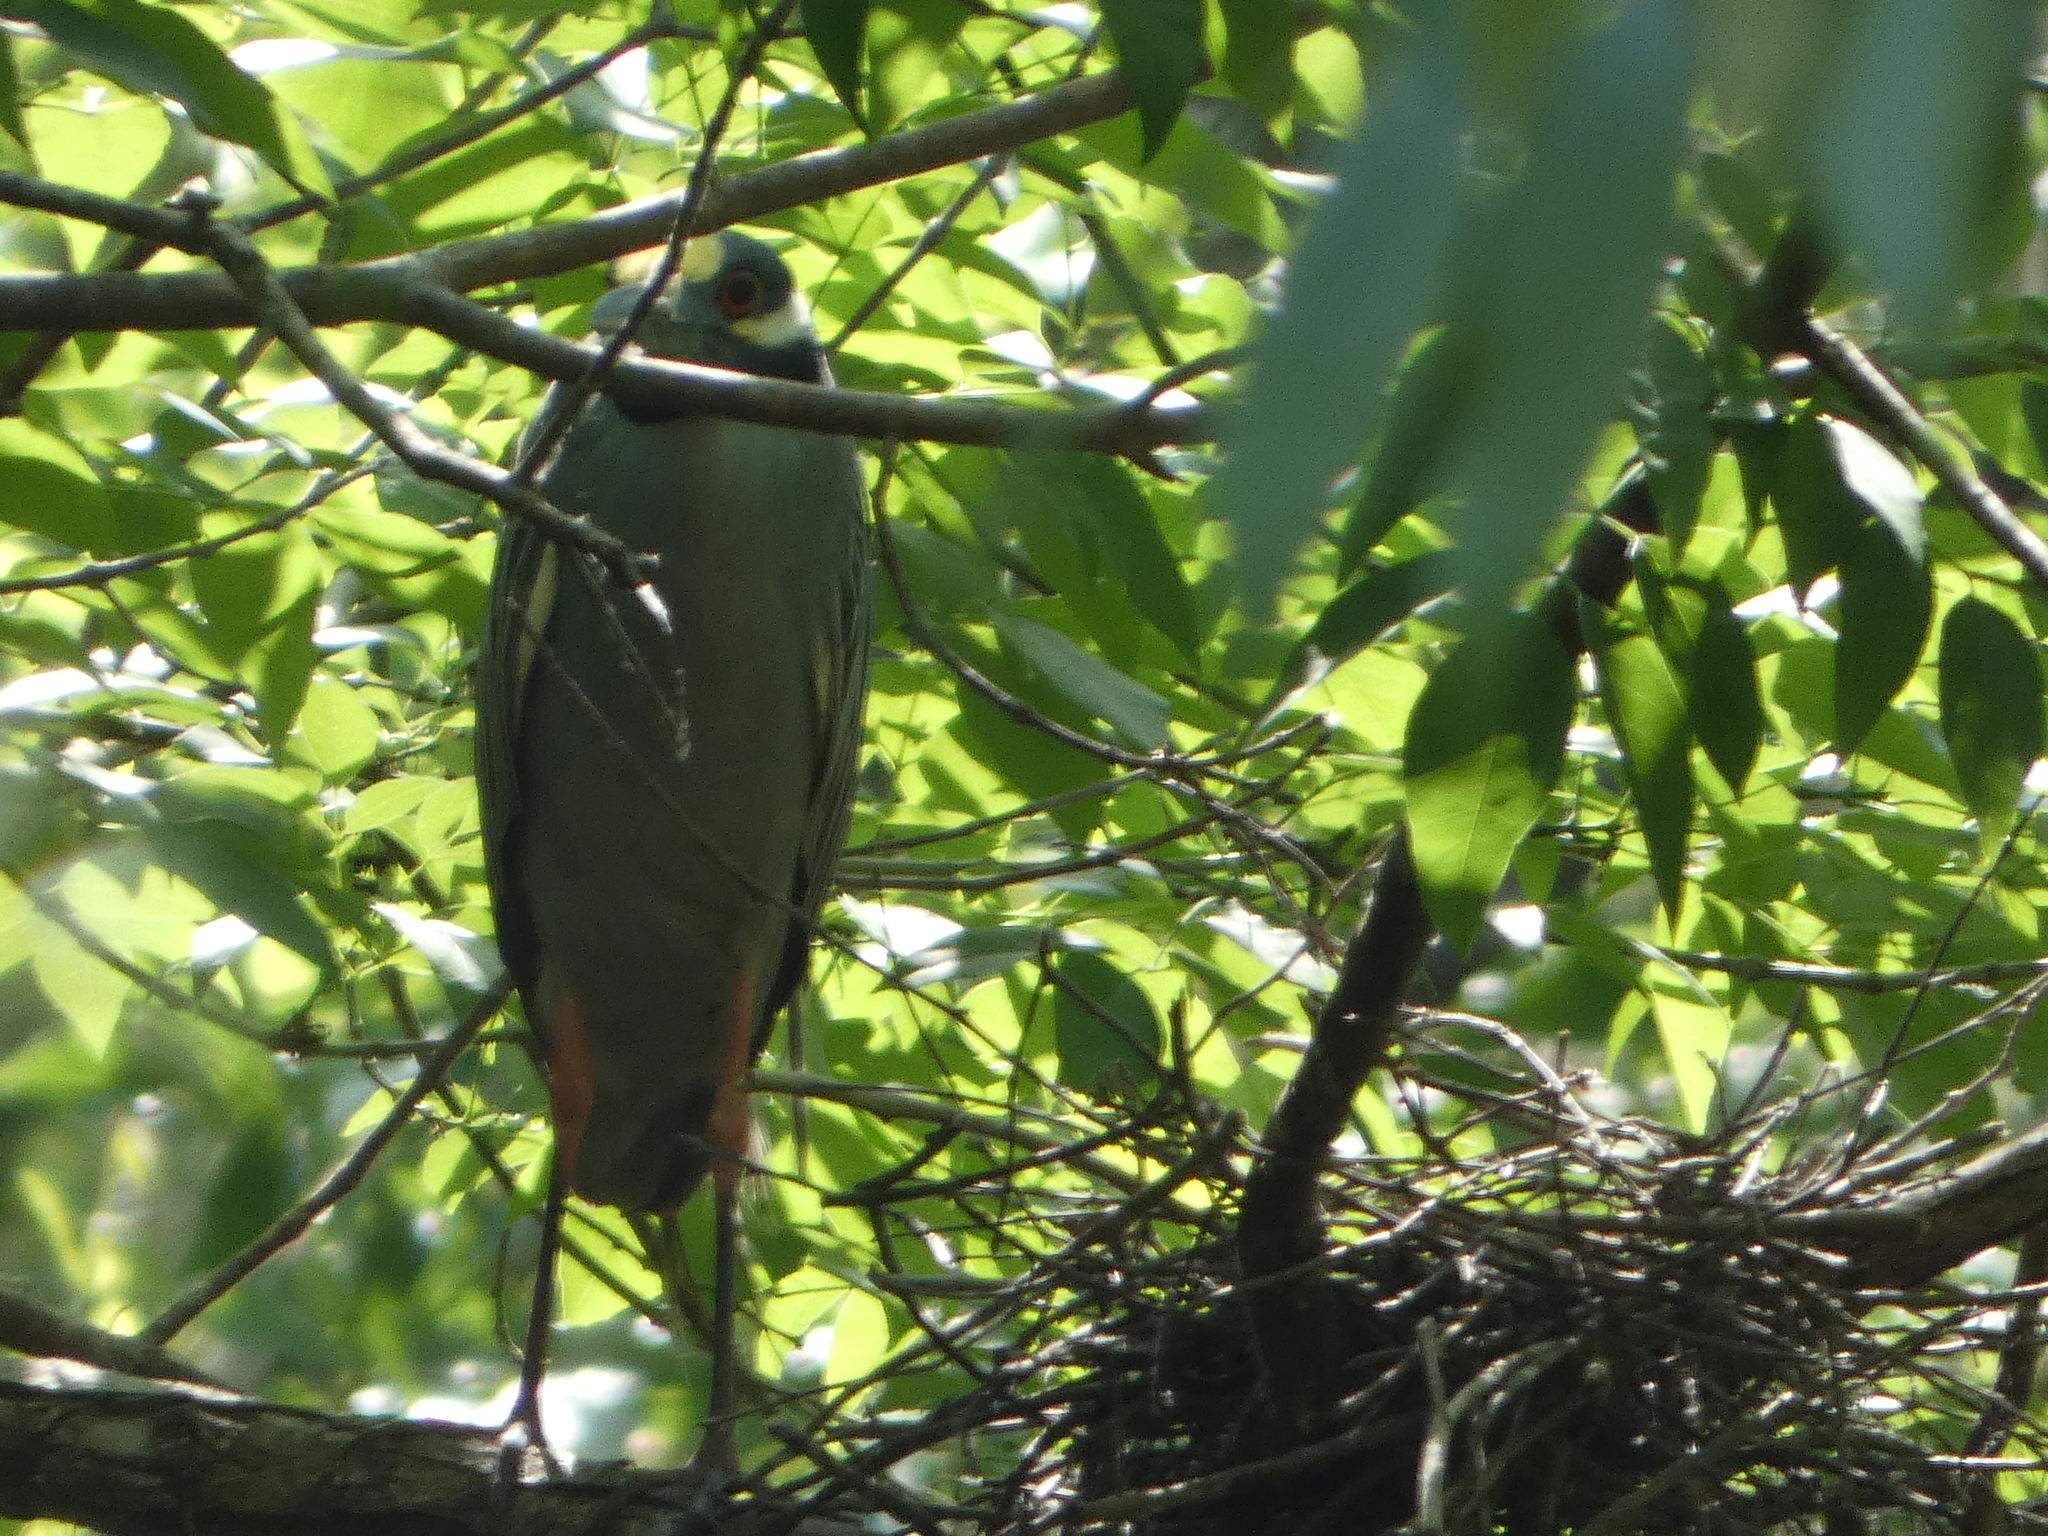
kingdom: Animalia
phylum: Chordata
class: Aves
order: Pelecaniformes
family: Ardeidae
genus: Nyctanassa
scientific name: Nyctanassa violacea
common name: Yellow-crowned night heron
